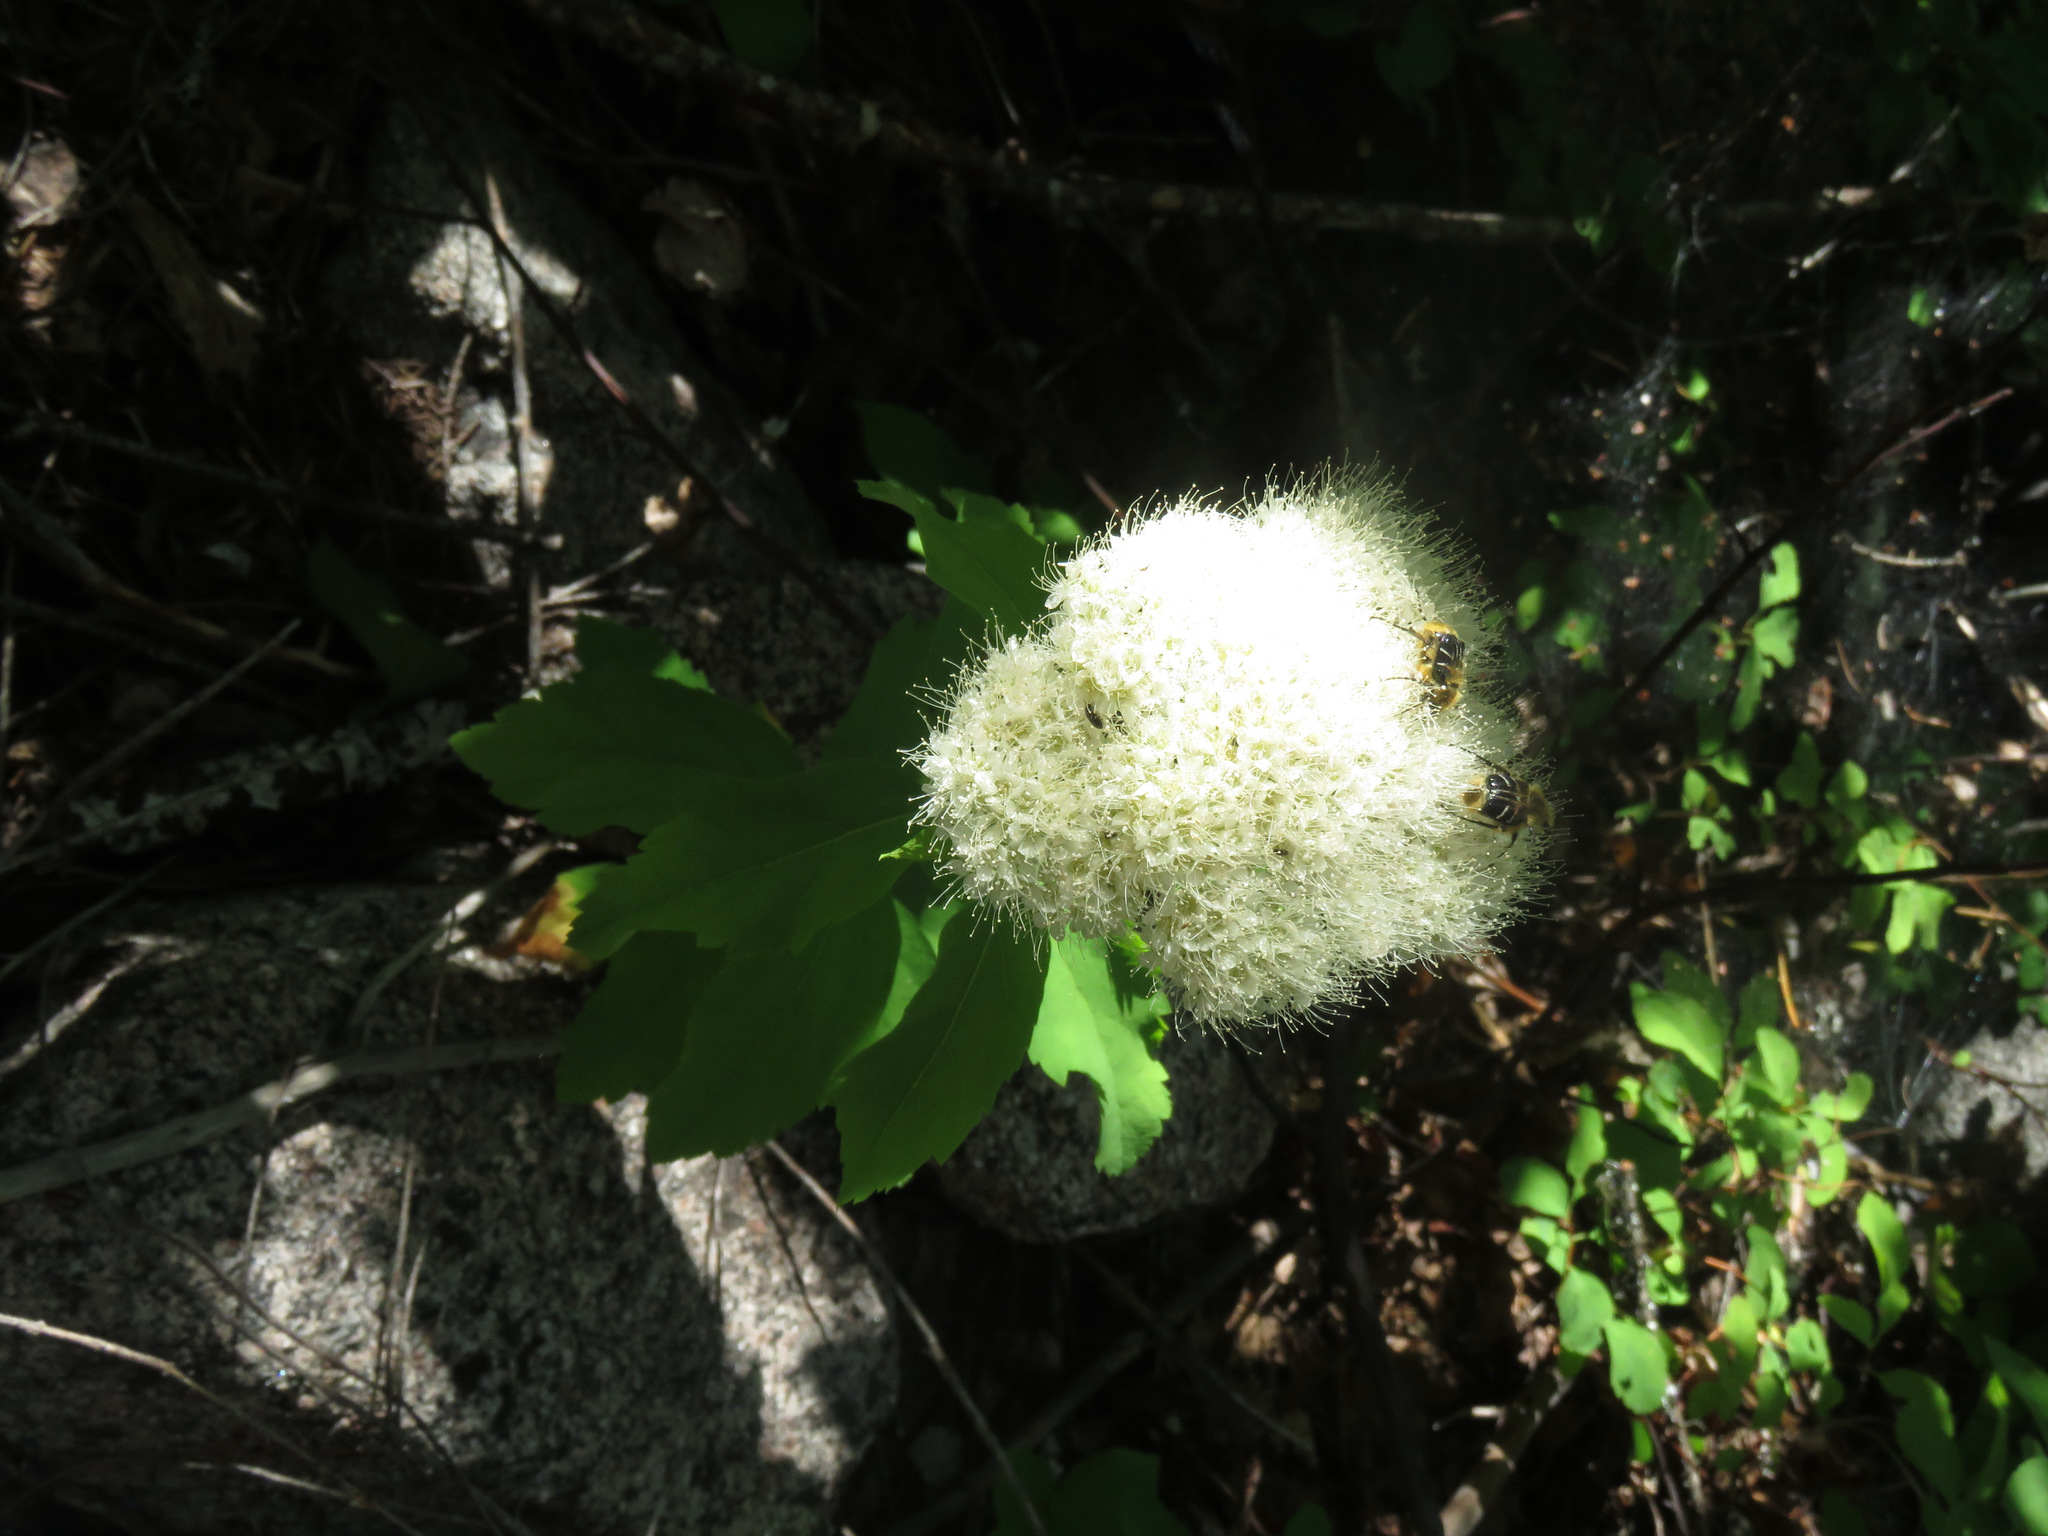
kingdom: Plantae
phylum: Tracheophyta
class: Magnoliopsida
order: Rosales
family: Rosaceae
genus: Spiraea
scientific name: Spiraea lucida
